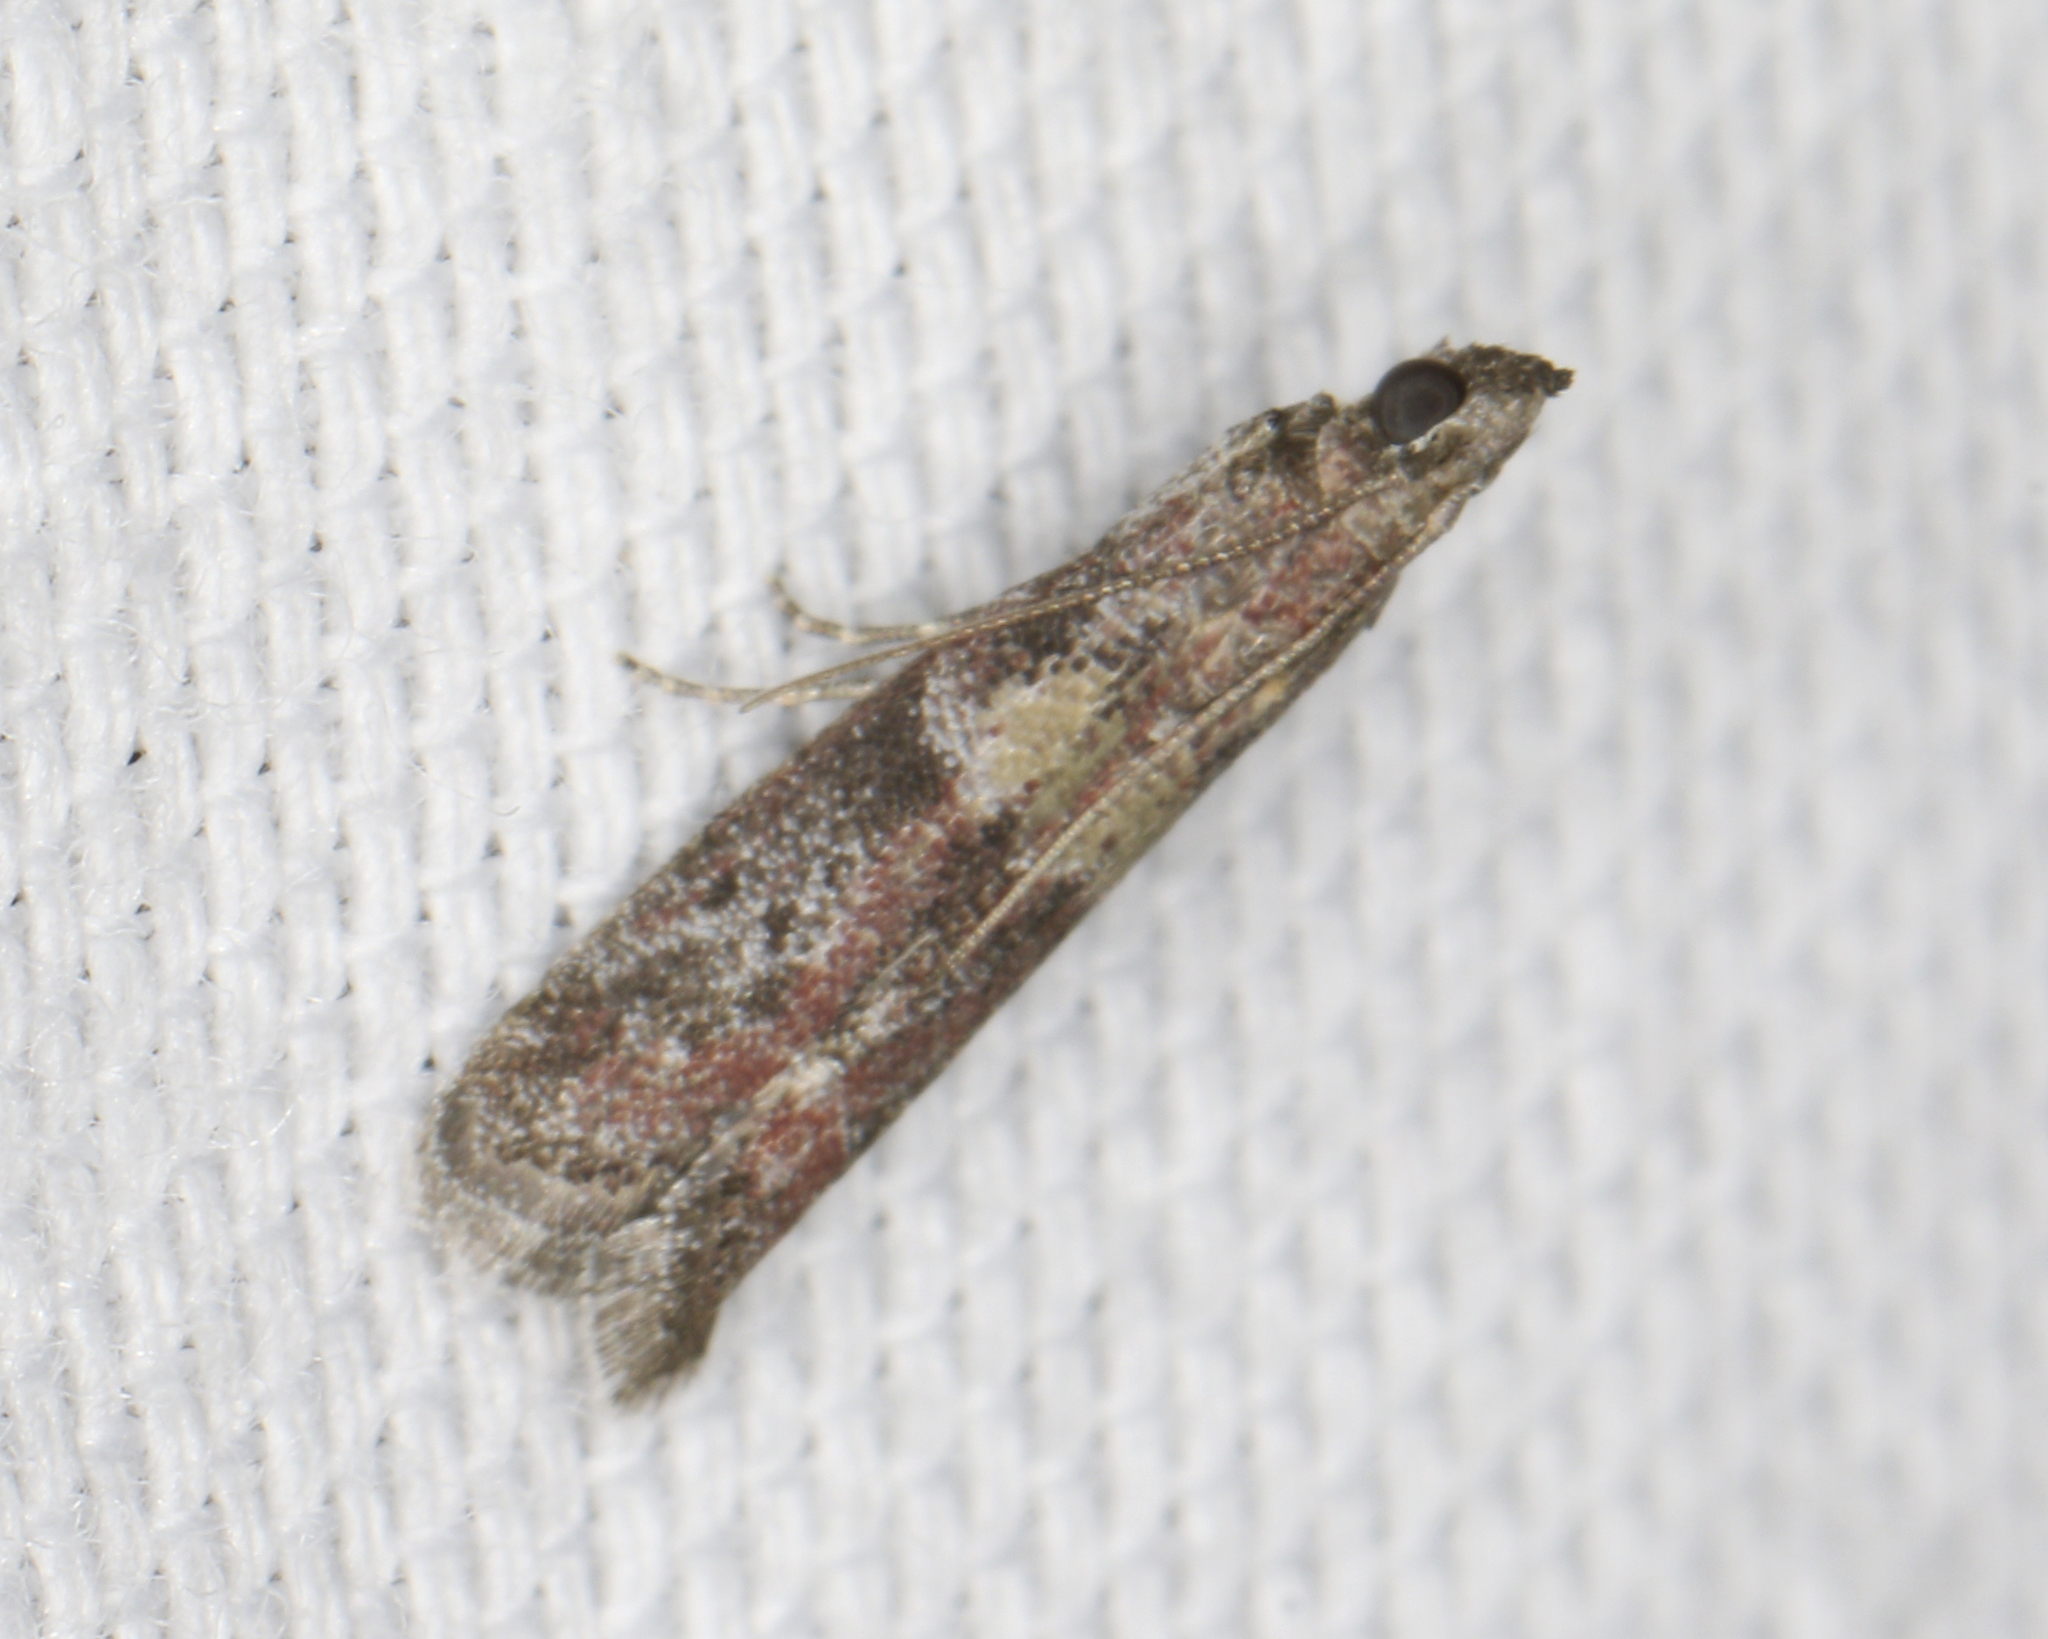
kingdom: Animalia
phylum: Arthropoda
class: Insecta
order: Lepidoptera
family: Pyralidae
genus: Ephestiodes
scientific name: Ephestiodes infimella
